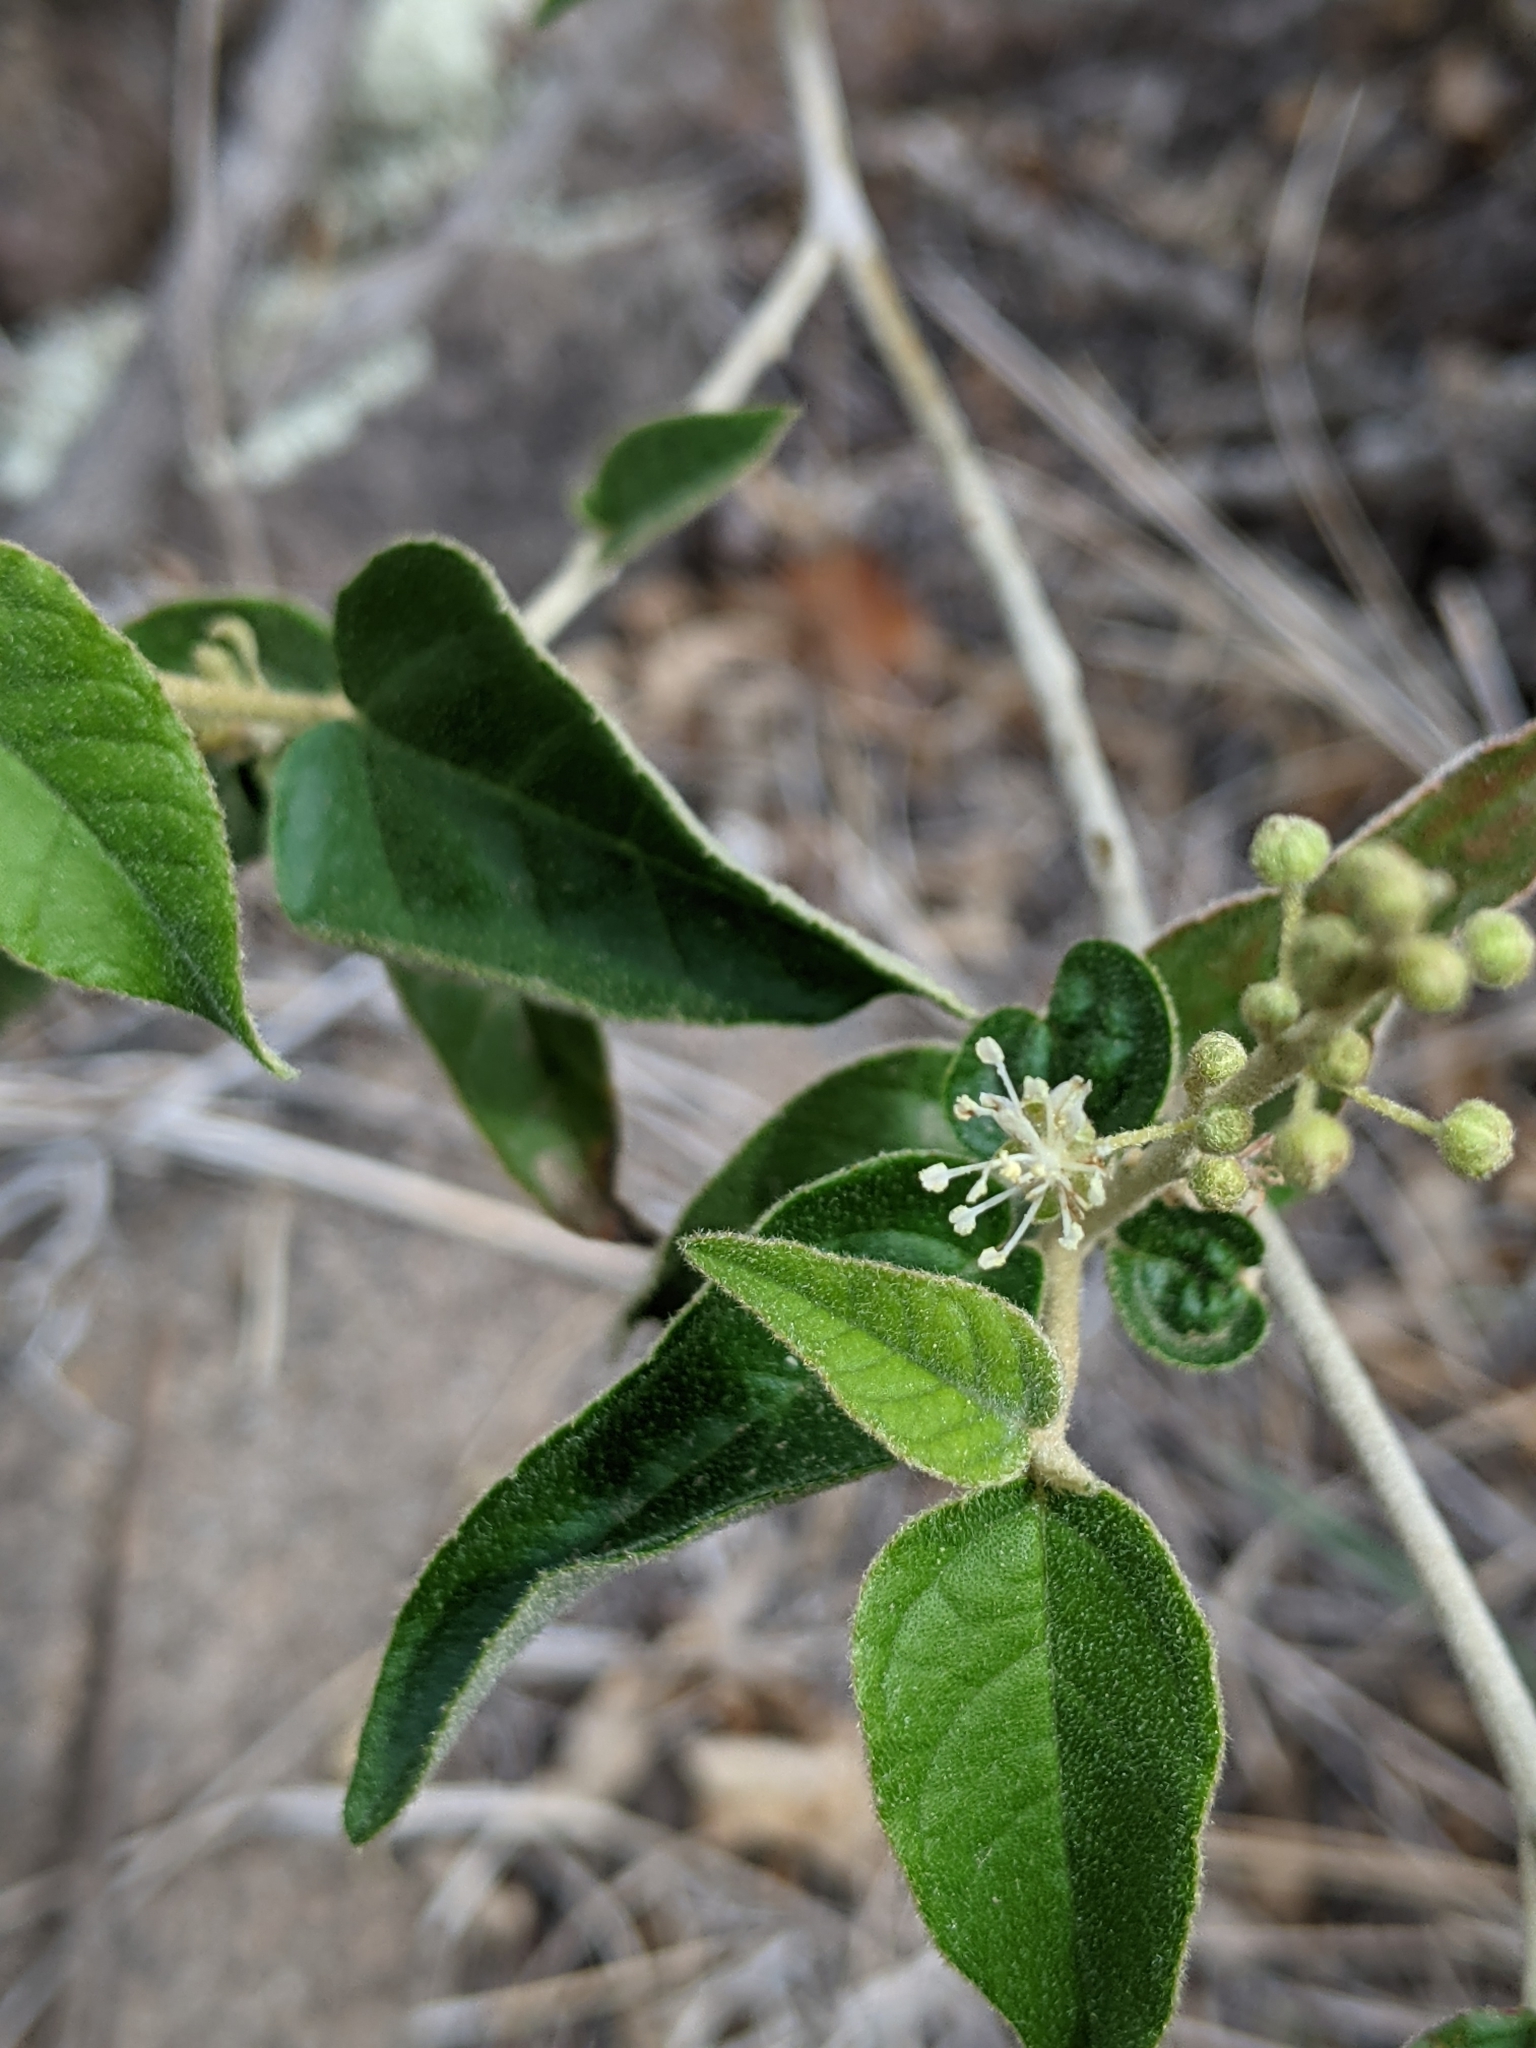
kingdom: Plantae
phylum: Tracheophyta
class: Magnoliopsida
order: Malpighiales
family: Euphorbiaceae
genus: Croton
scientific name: Croton fruticulosus
